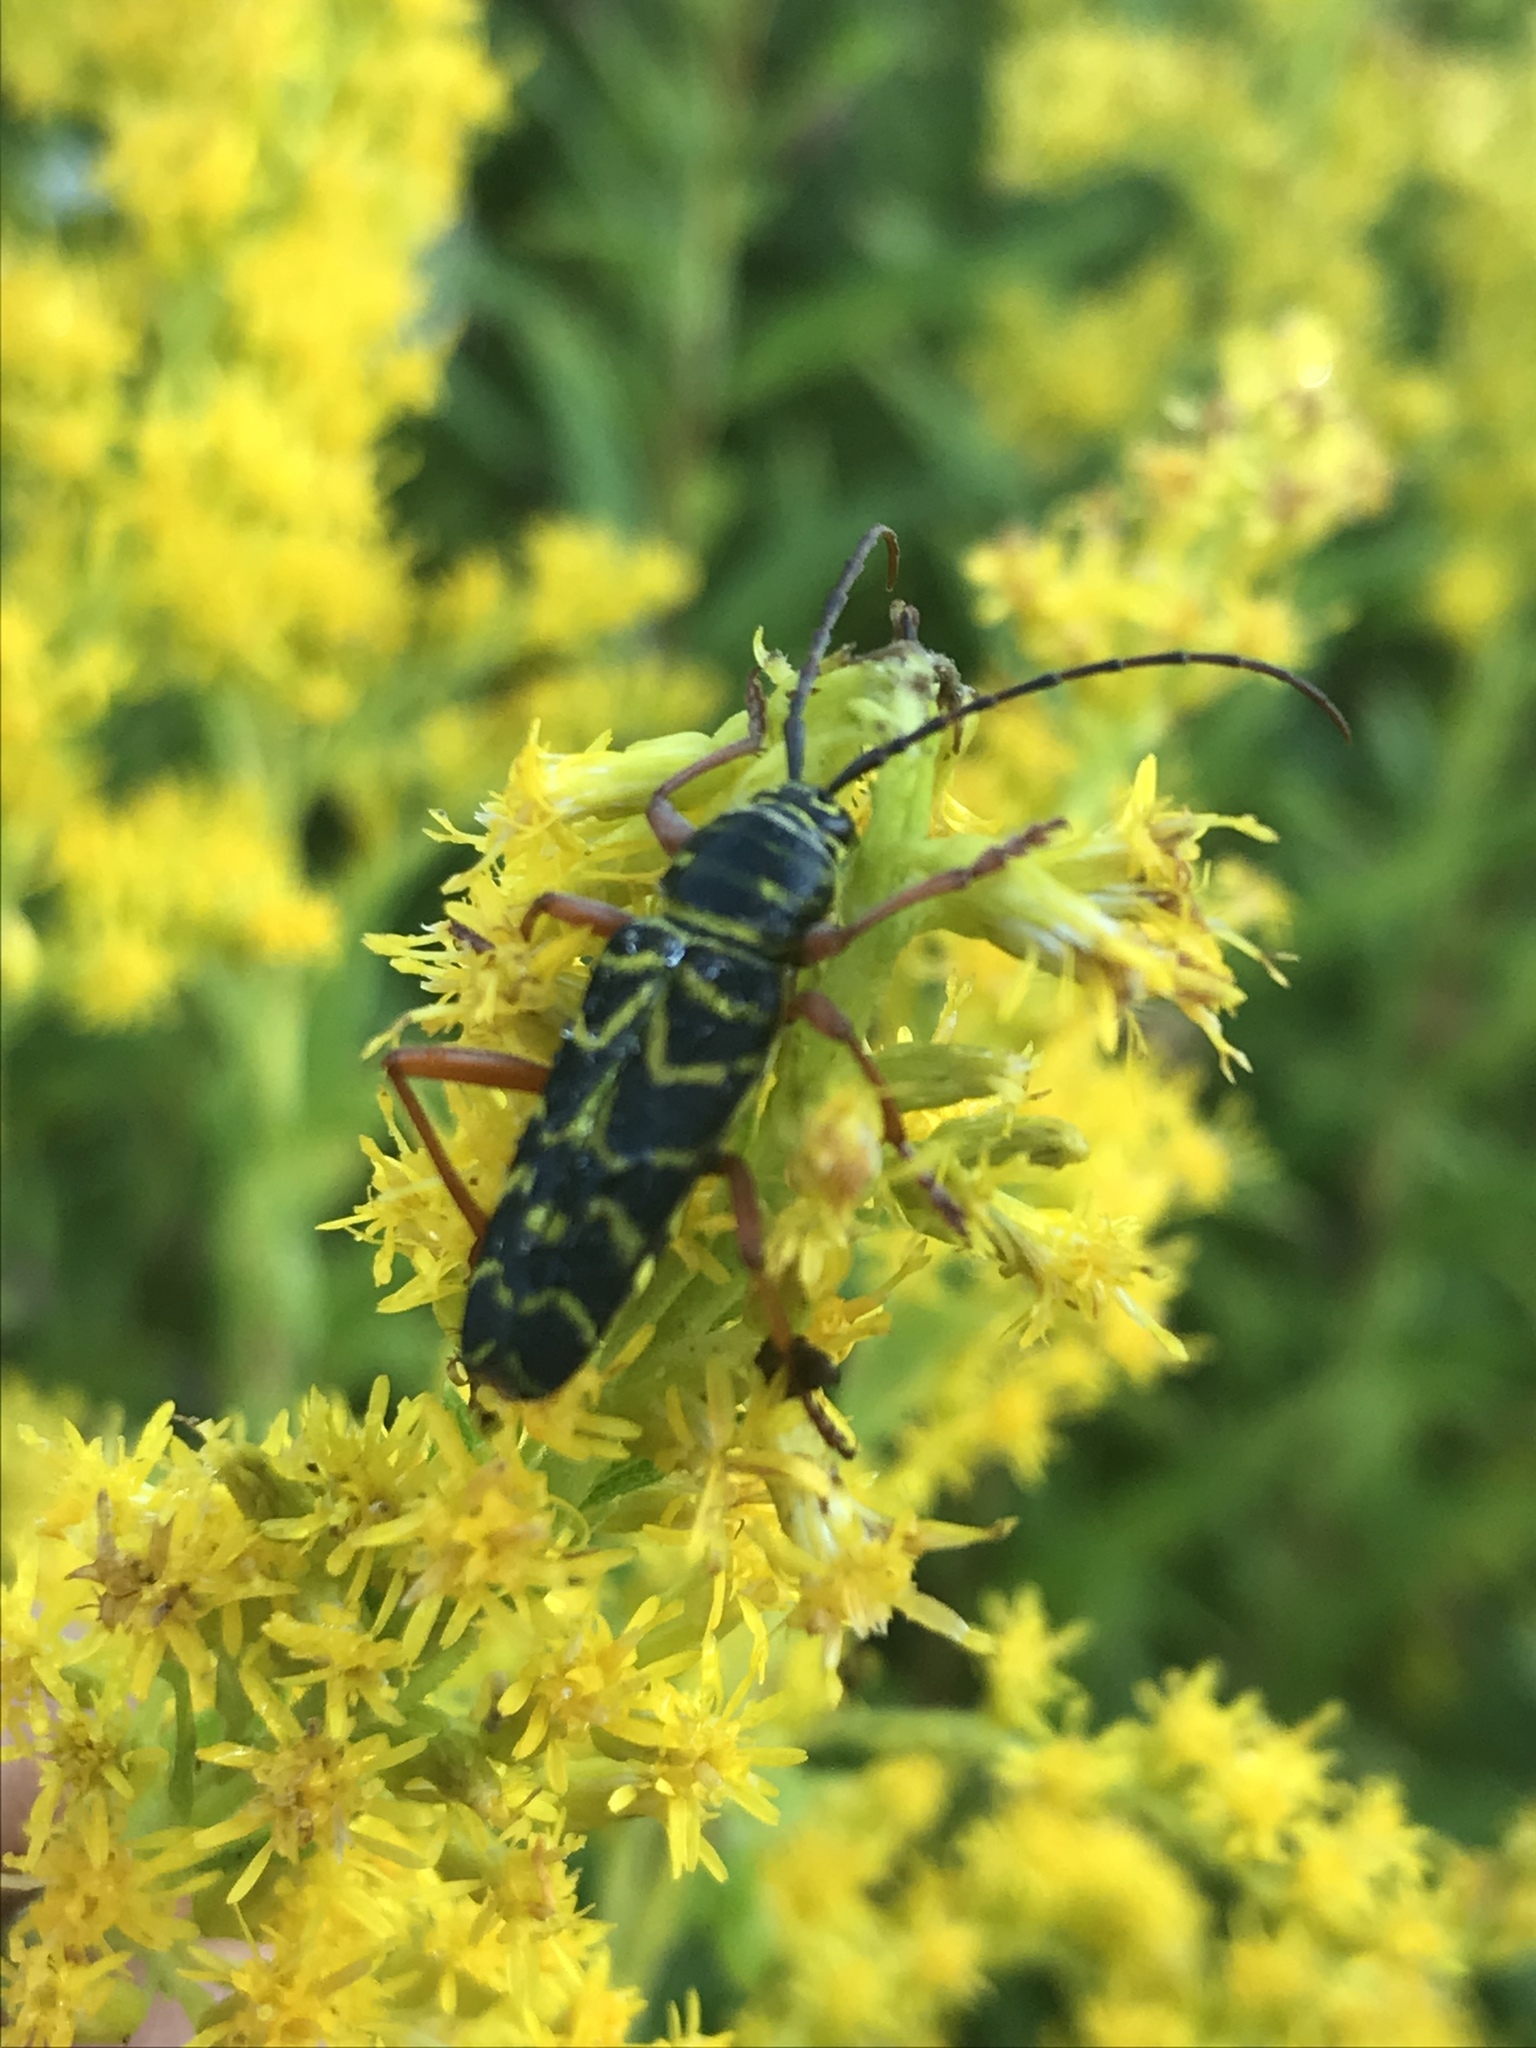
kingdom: Animalia
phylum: Arthropoda
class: Insecta
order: Coleoptera
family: Cerambycidae
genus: Megacyllene
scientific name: Megacyllene robiniae
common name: Locust borer
